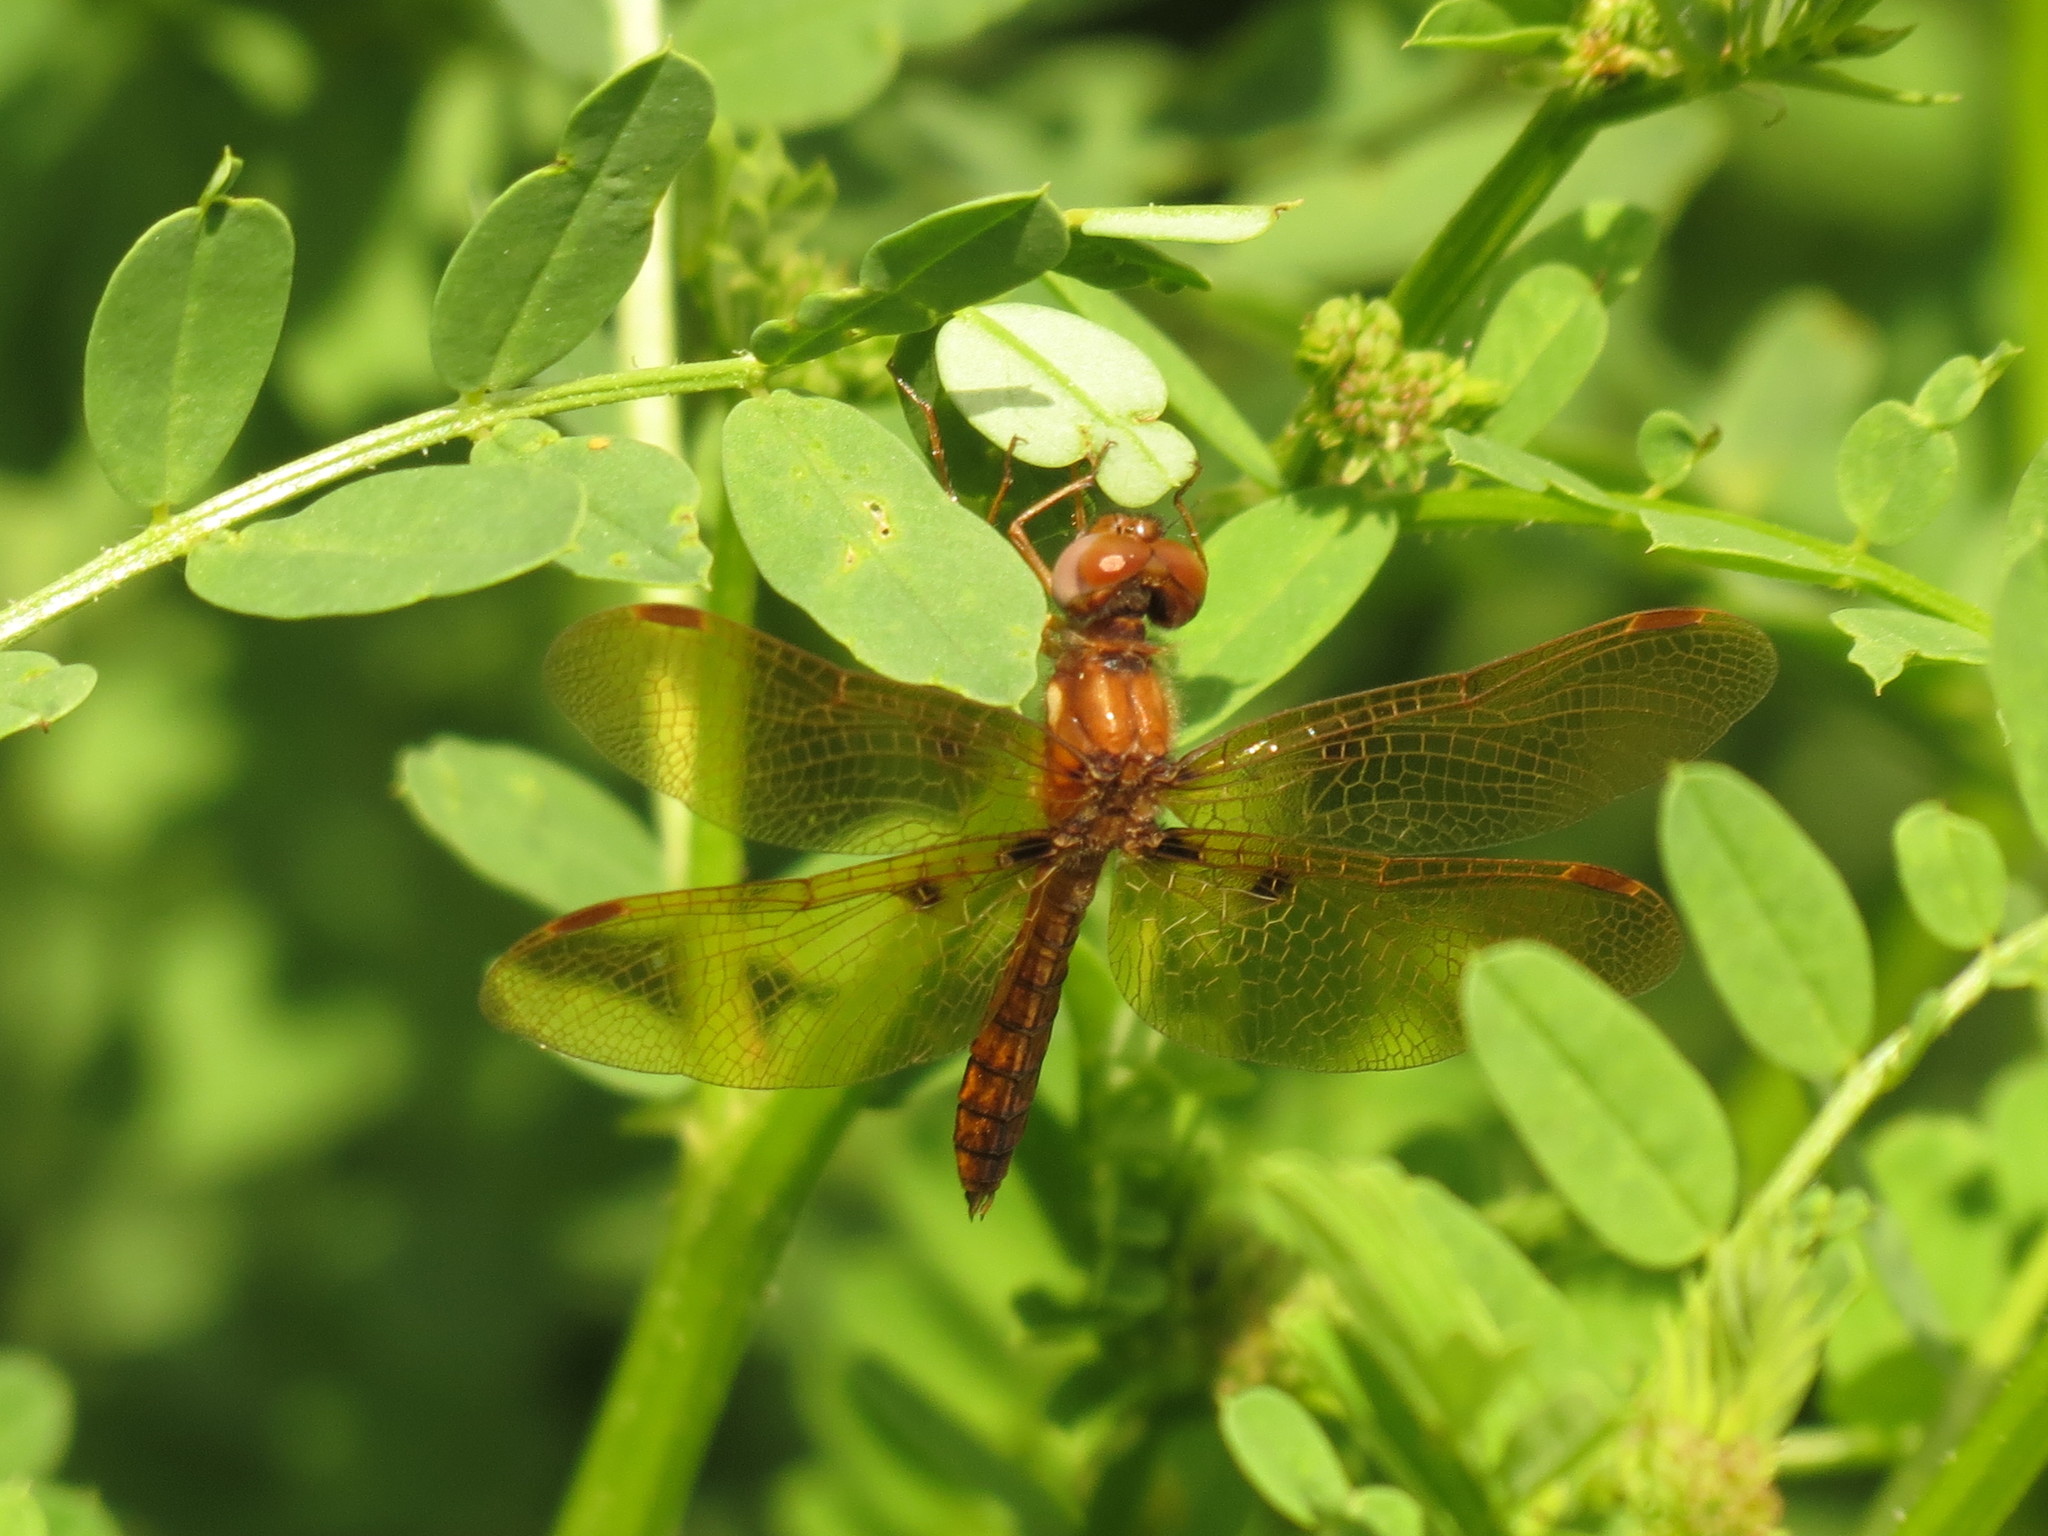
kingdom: Animalia
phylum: Arthropoda
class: Insecta
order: Odonata
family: Libellulidae
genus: Perithemis
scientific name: Perithemis tenera
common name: Eastern amberwing
